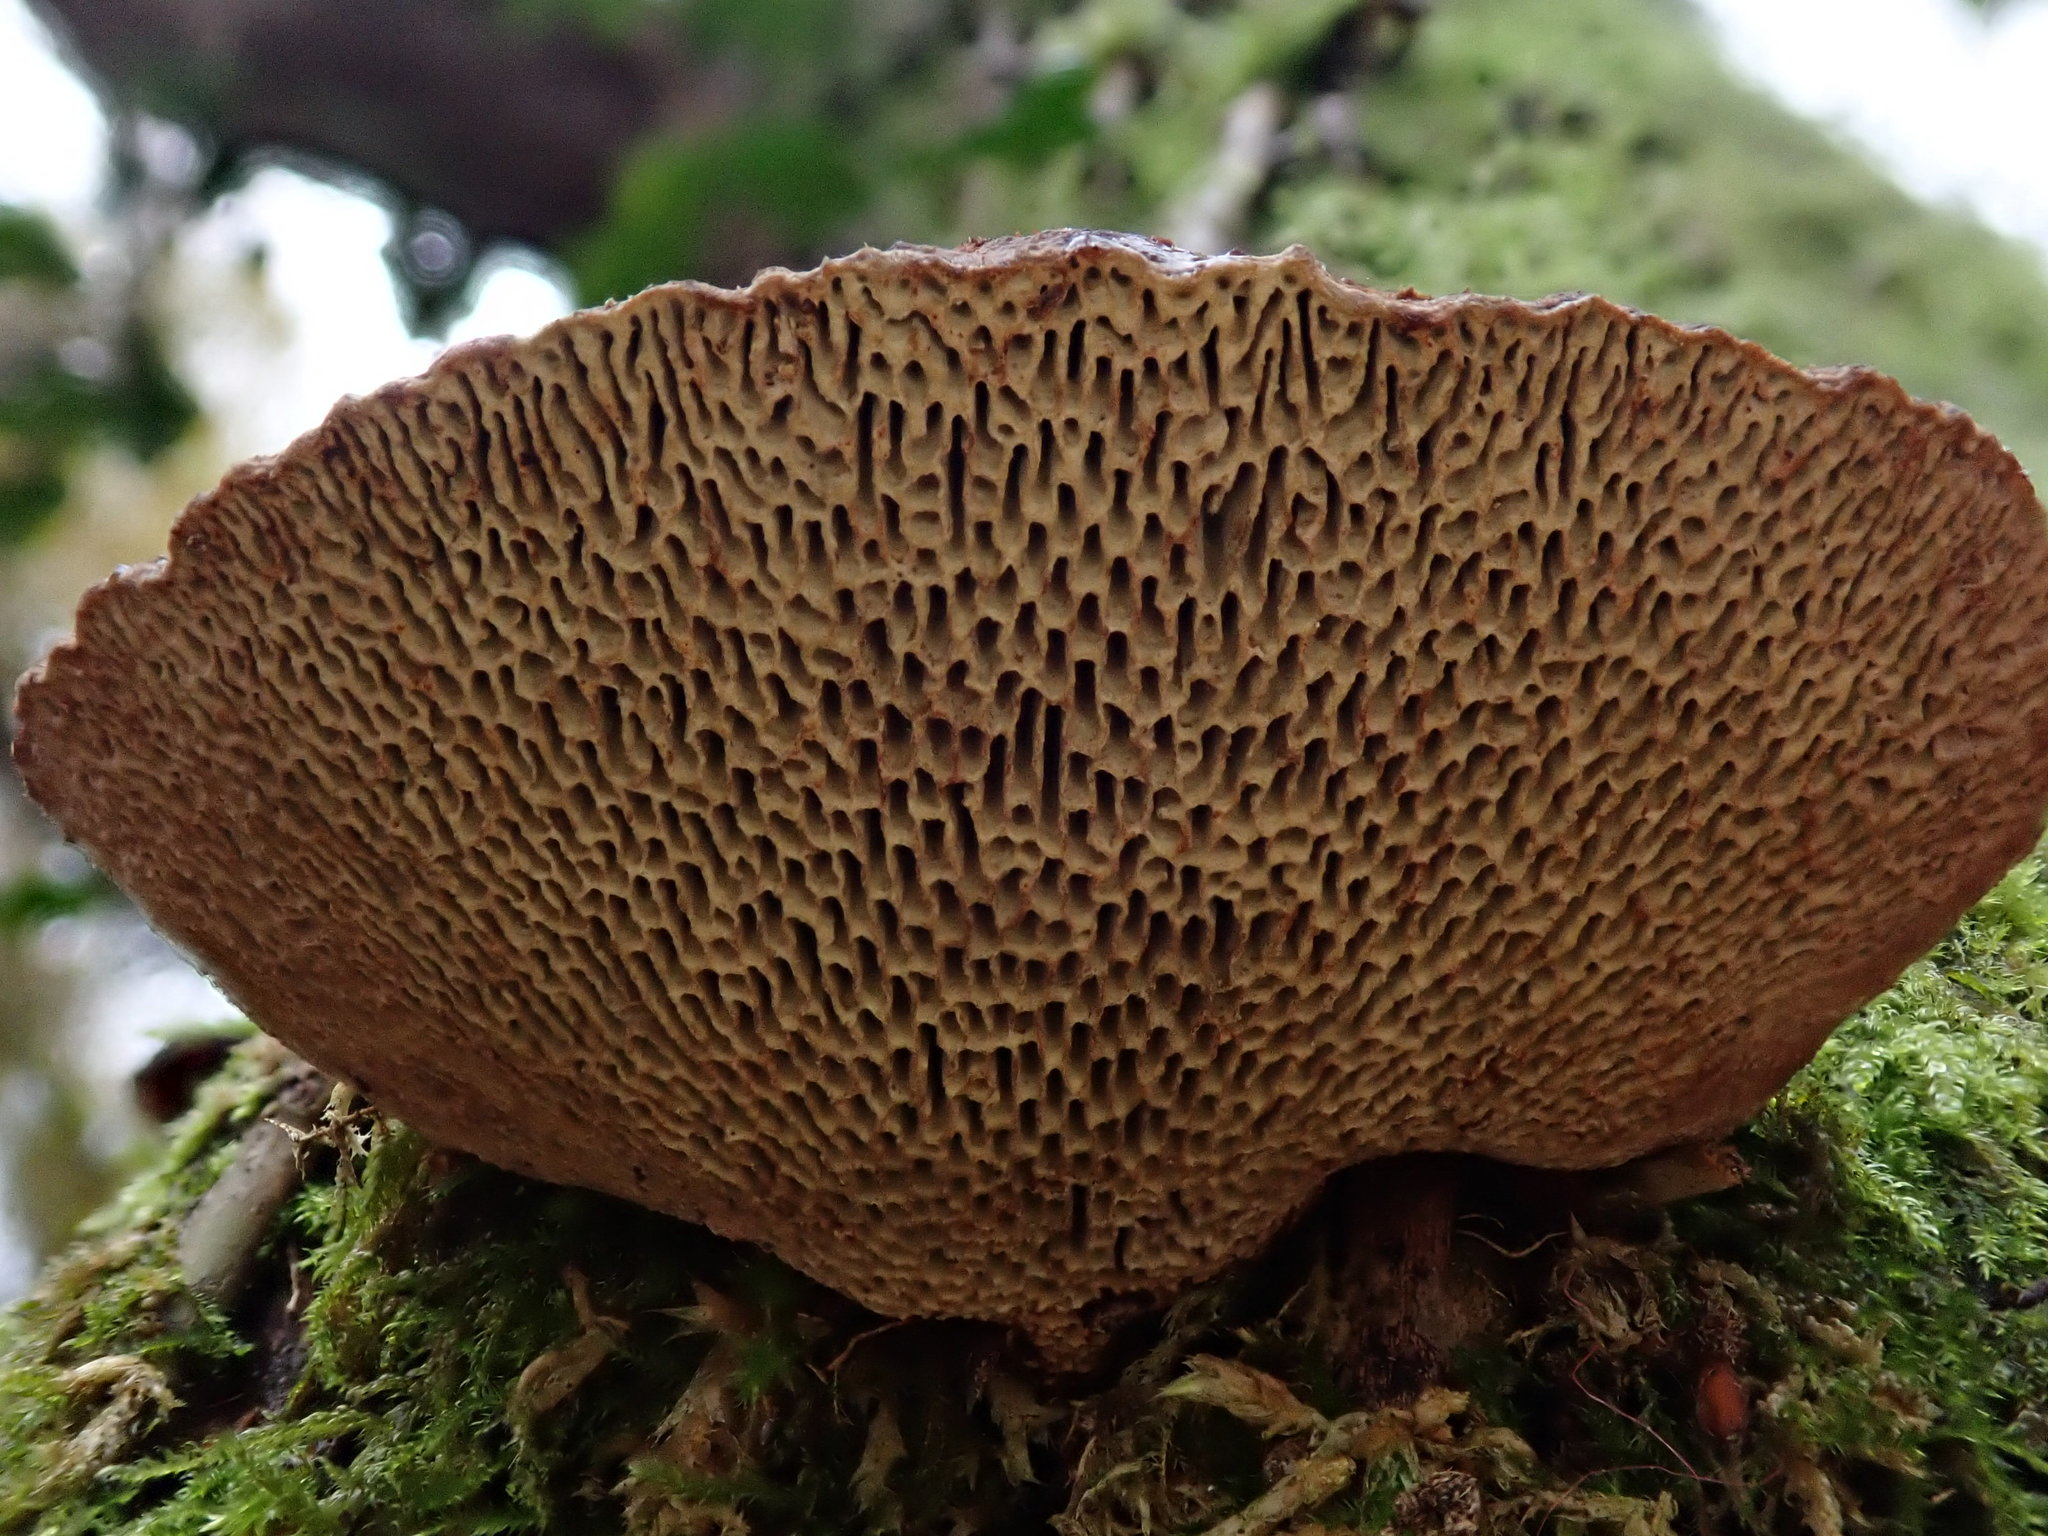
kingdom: Fungi
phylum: Basidiomycota
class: Agaricomycetes
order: Polyporales
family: Polyporaceae
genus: Daedaleopsis
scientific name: Daedaleopsis confragosa
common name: Blushing bracket
